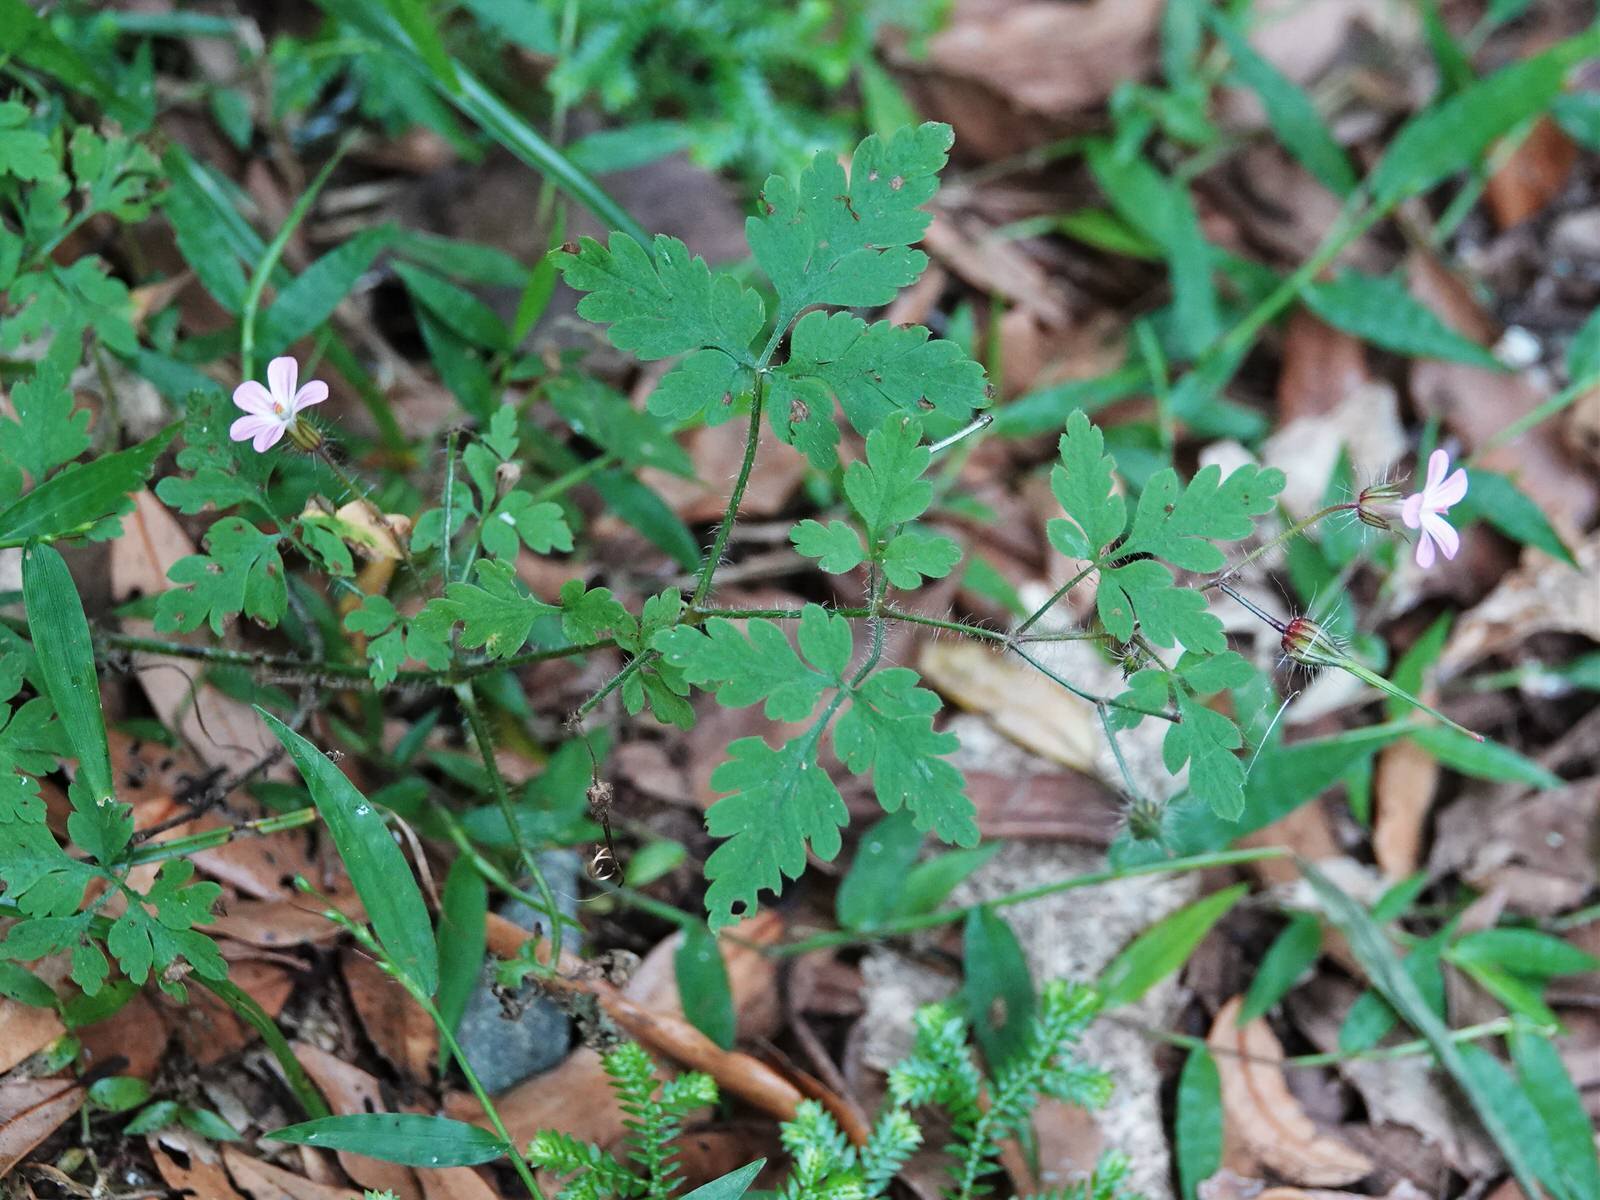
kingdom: Plantae
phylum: Tracheophyta
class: Magnoliopsida
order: Geraniales
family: Geraniaceae
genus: Geranium
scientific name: Geranium robertianum
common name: Herb-robert
